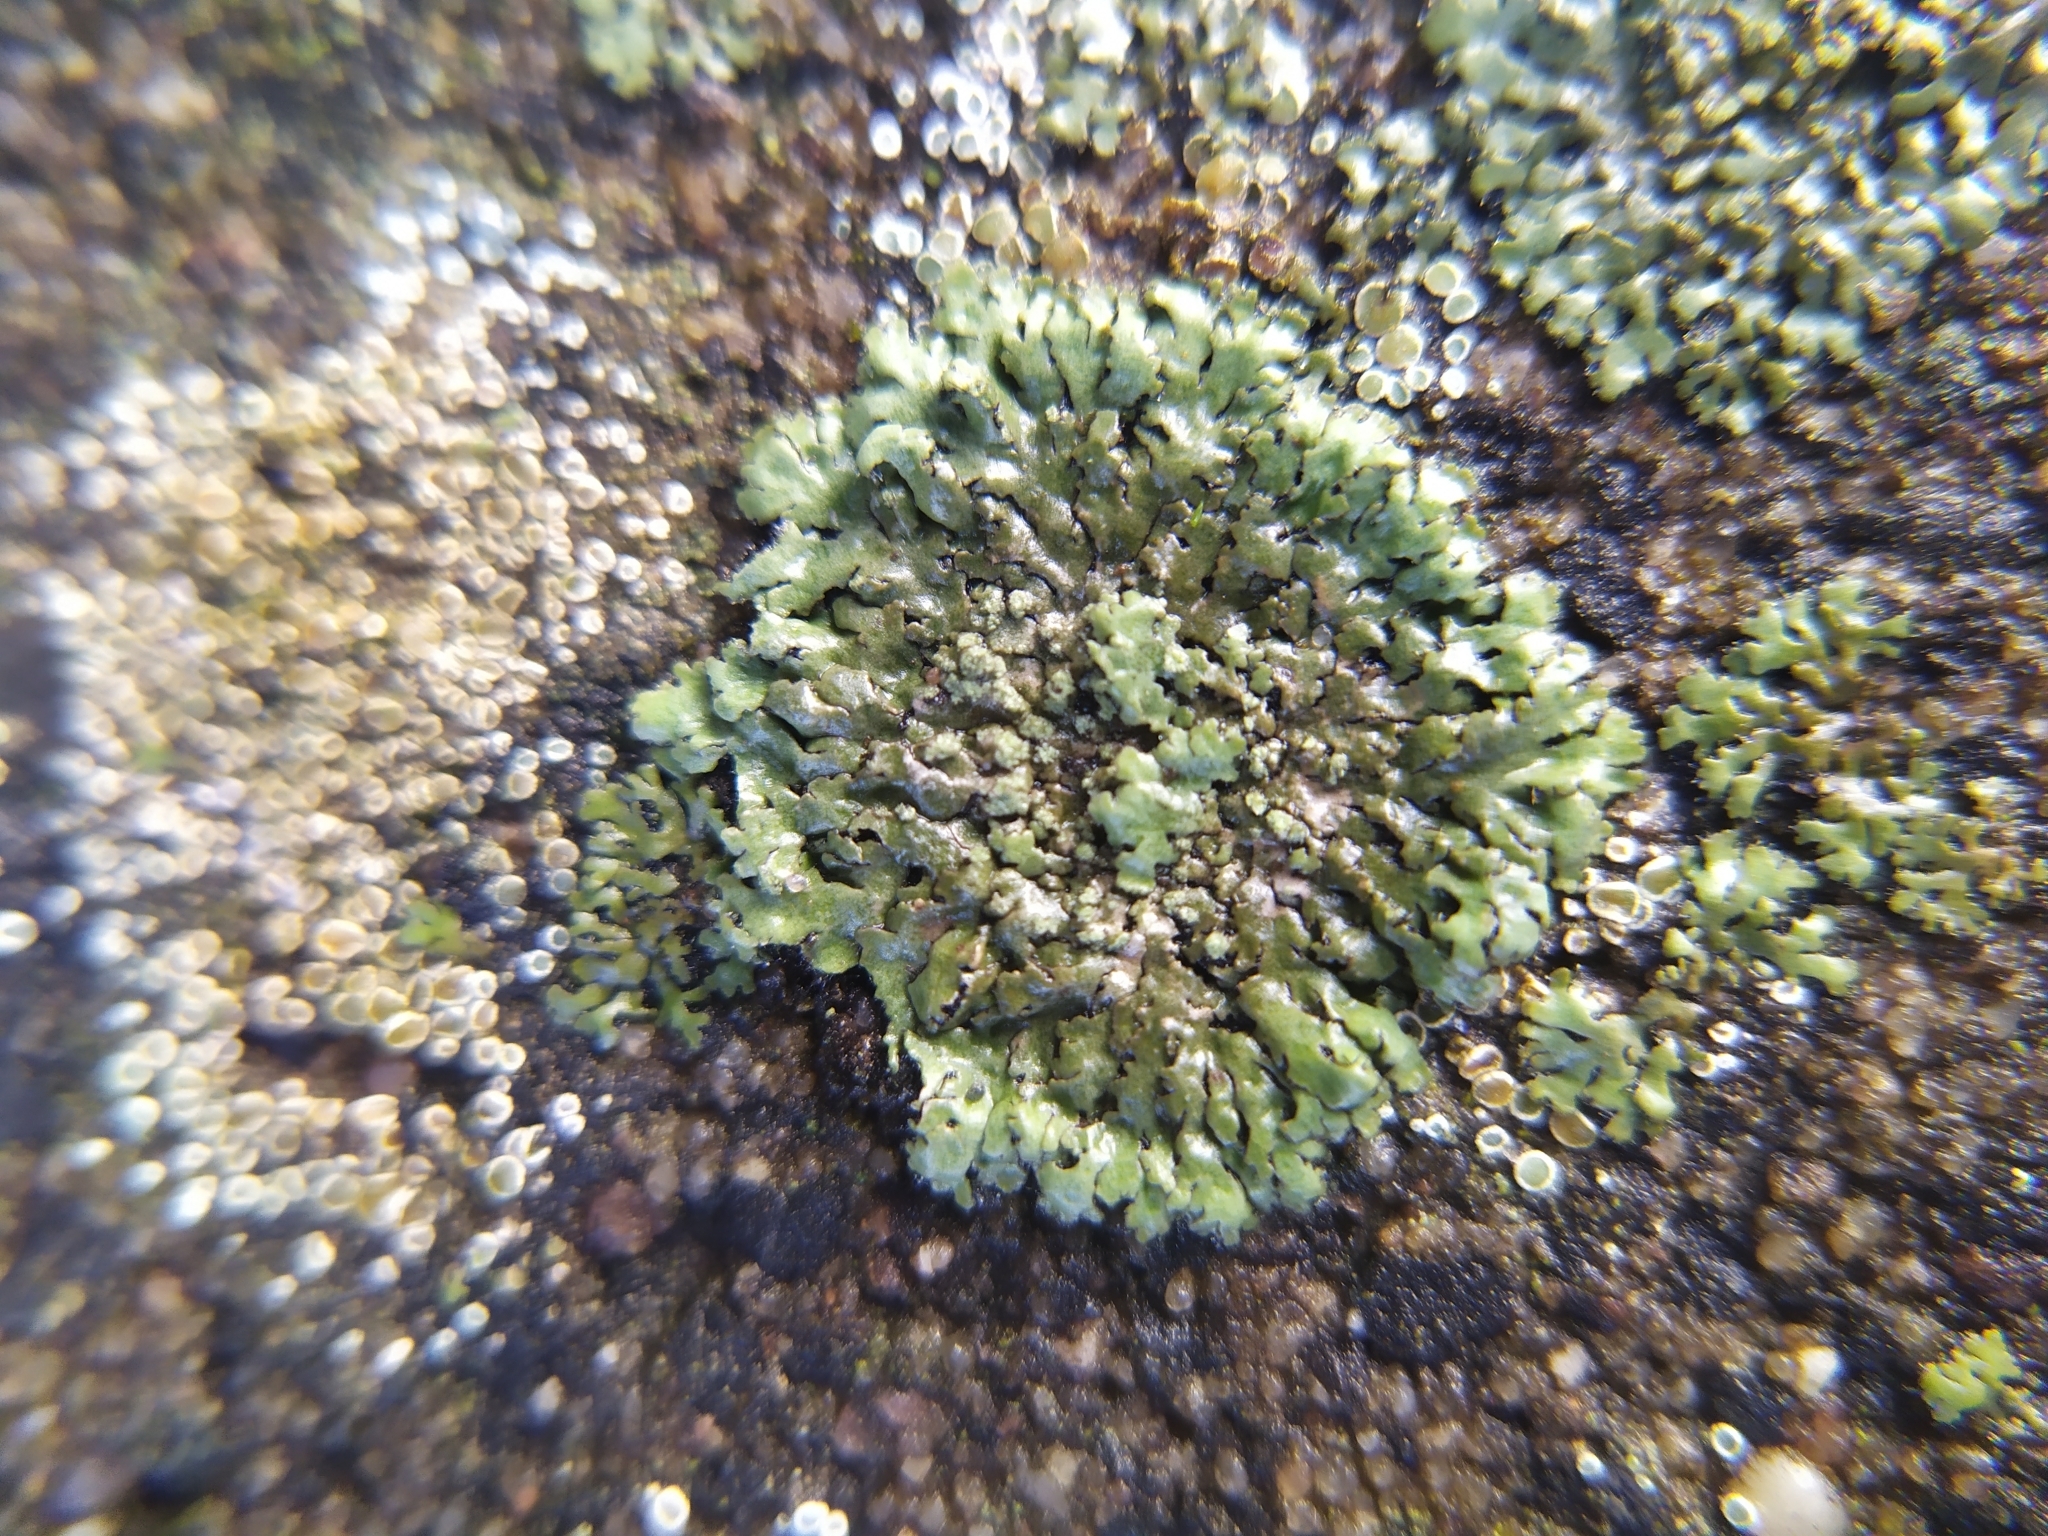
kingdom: Fungi
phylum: Ascomycota
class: Lecanoromycetes
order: Caliciales
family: Physciaceae
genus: Phaeophyscia
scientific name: Phaeophyscia orbicularis
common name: Mealy shadow lichen
